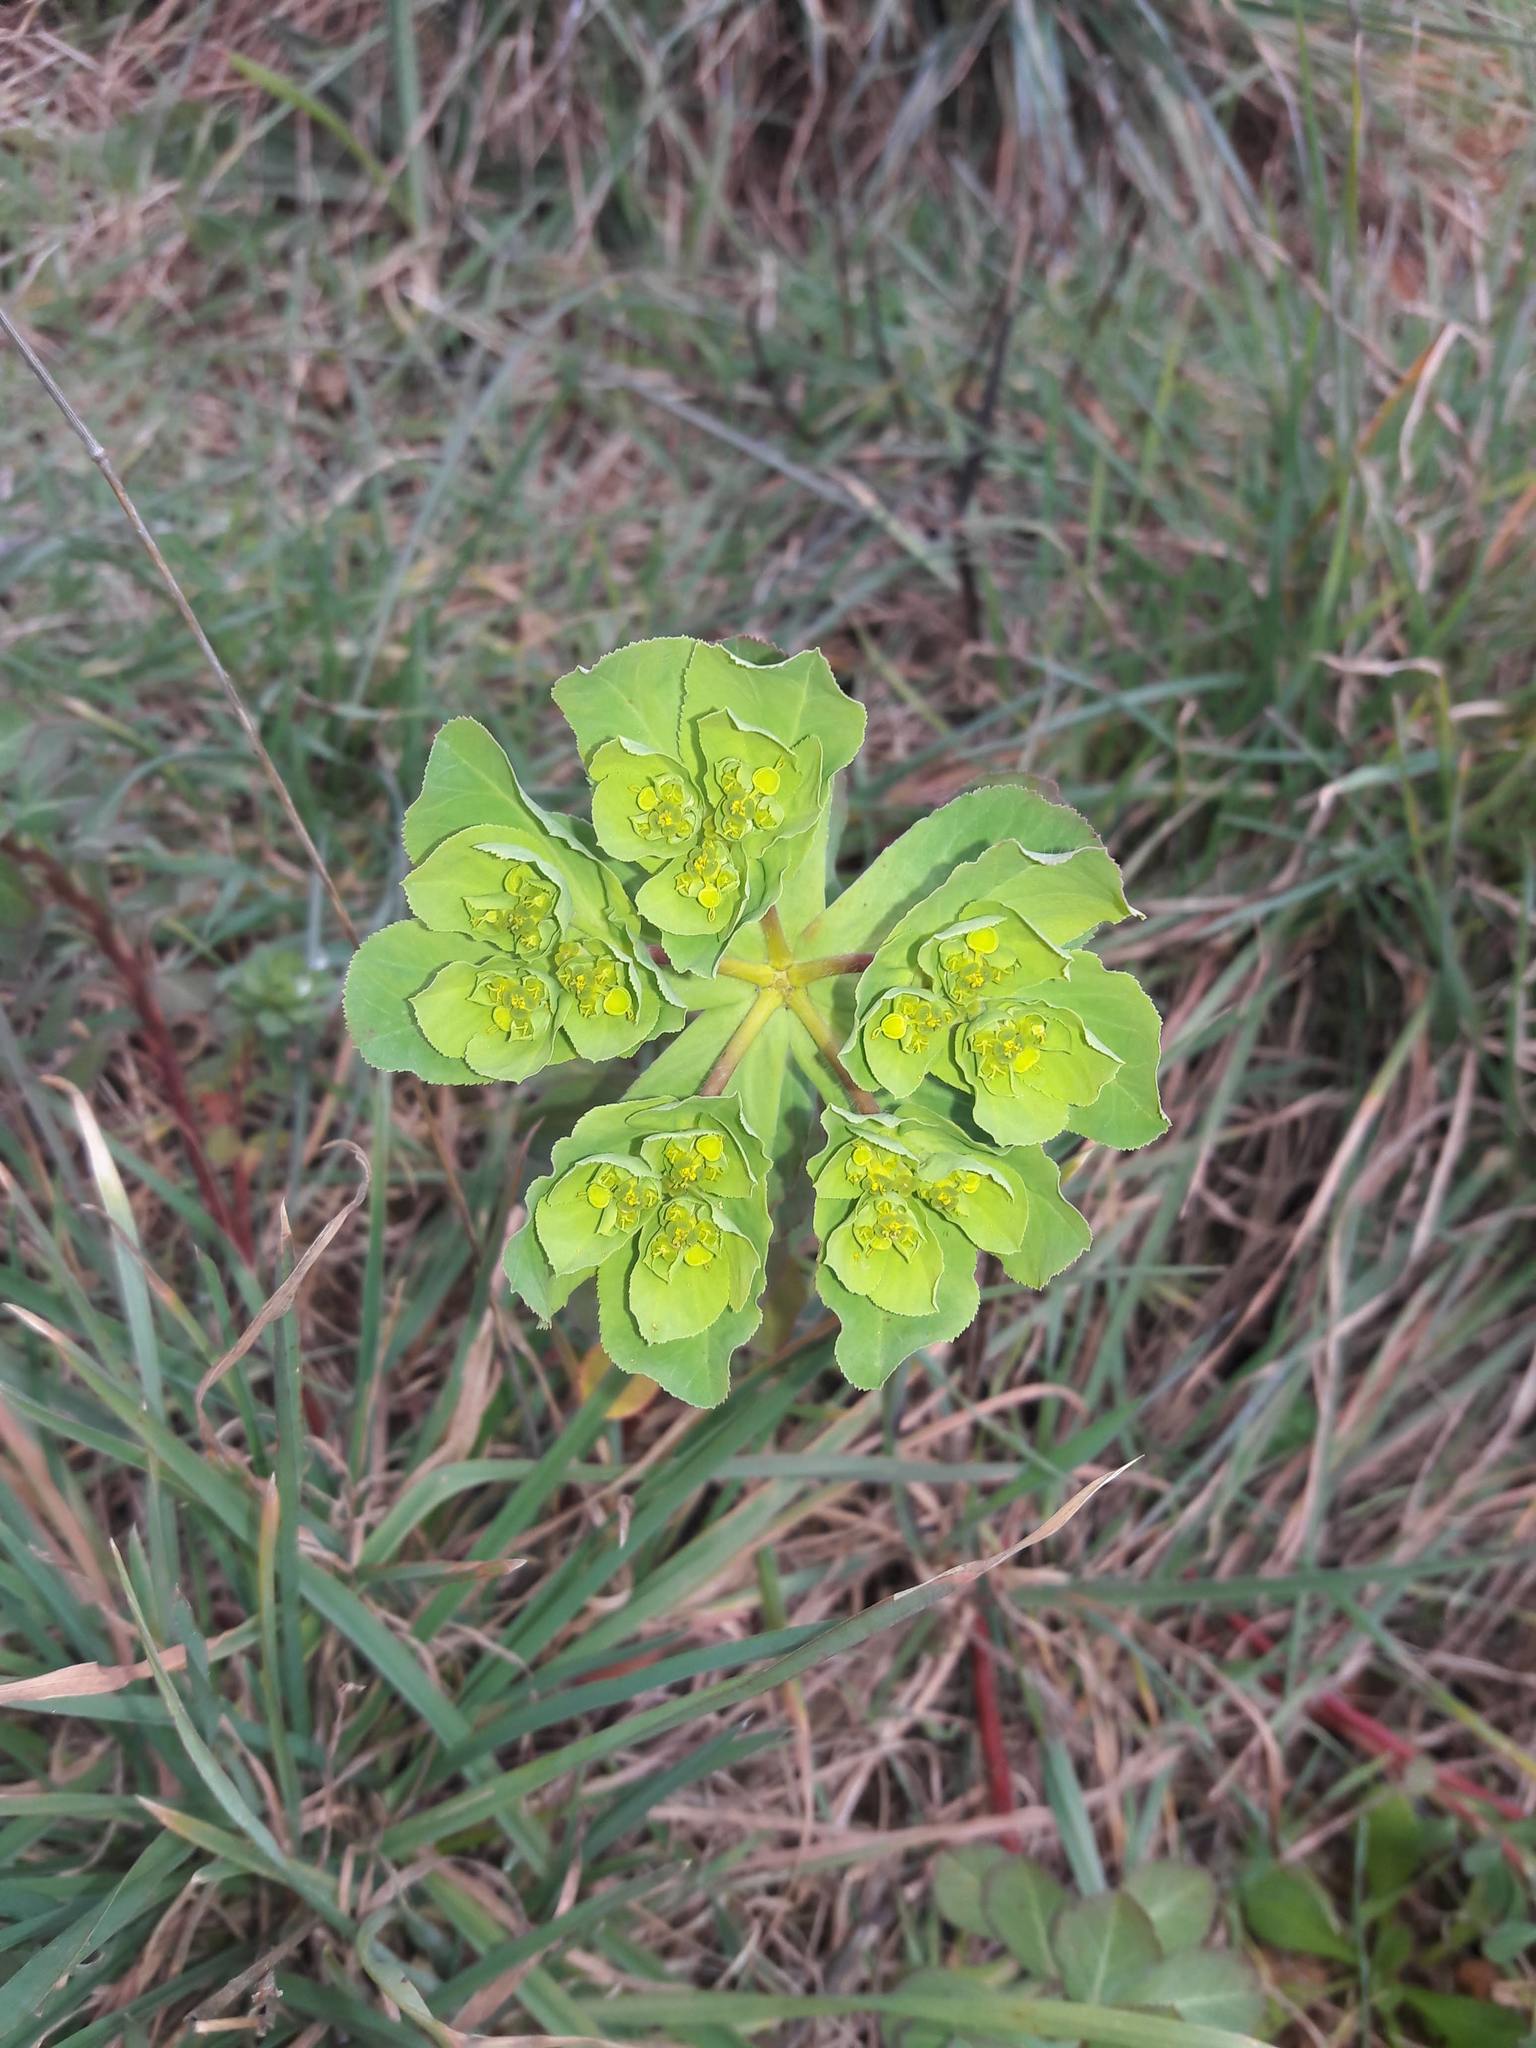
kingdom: Plantae
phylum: Tracheophyta
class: Magnoliopsida
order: Malpighiales
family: Euphorbiaceae
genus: Euphorbia
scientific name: Euphorbia helioscopia
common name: Sun spurge
